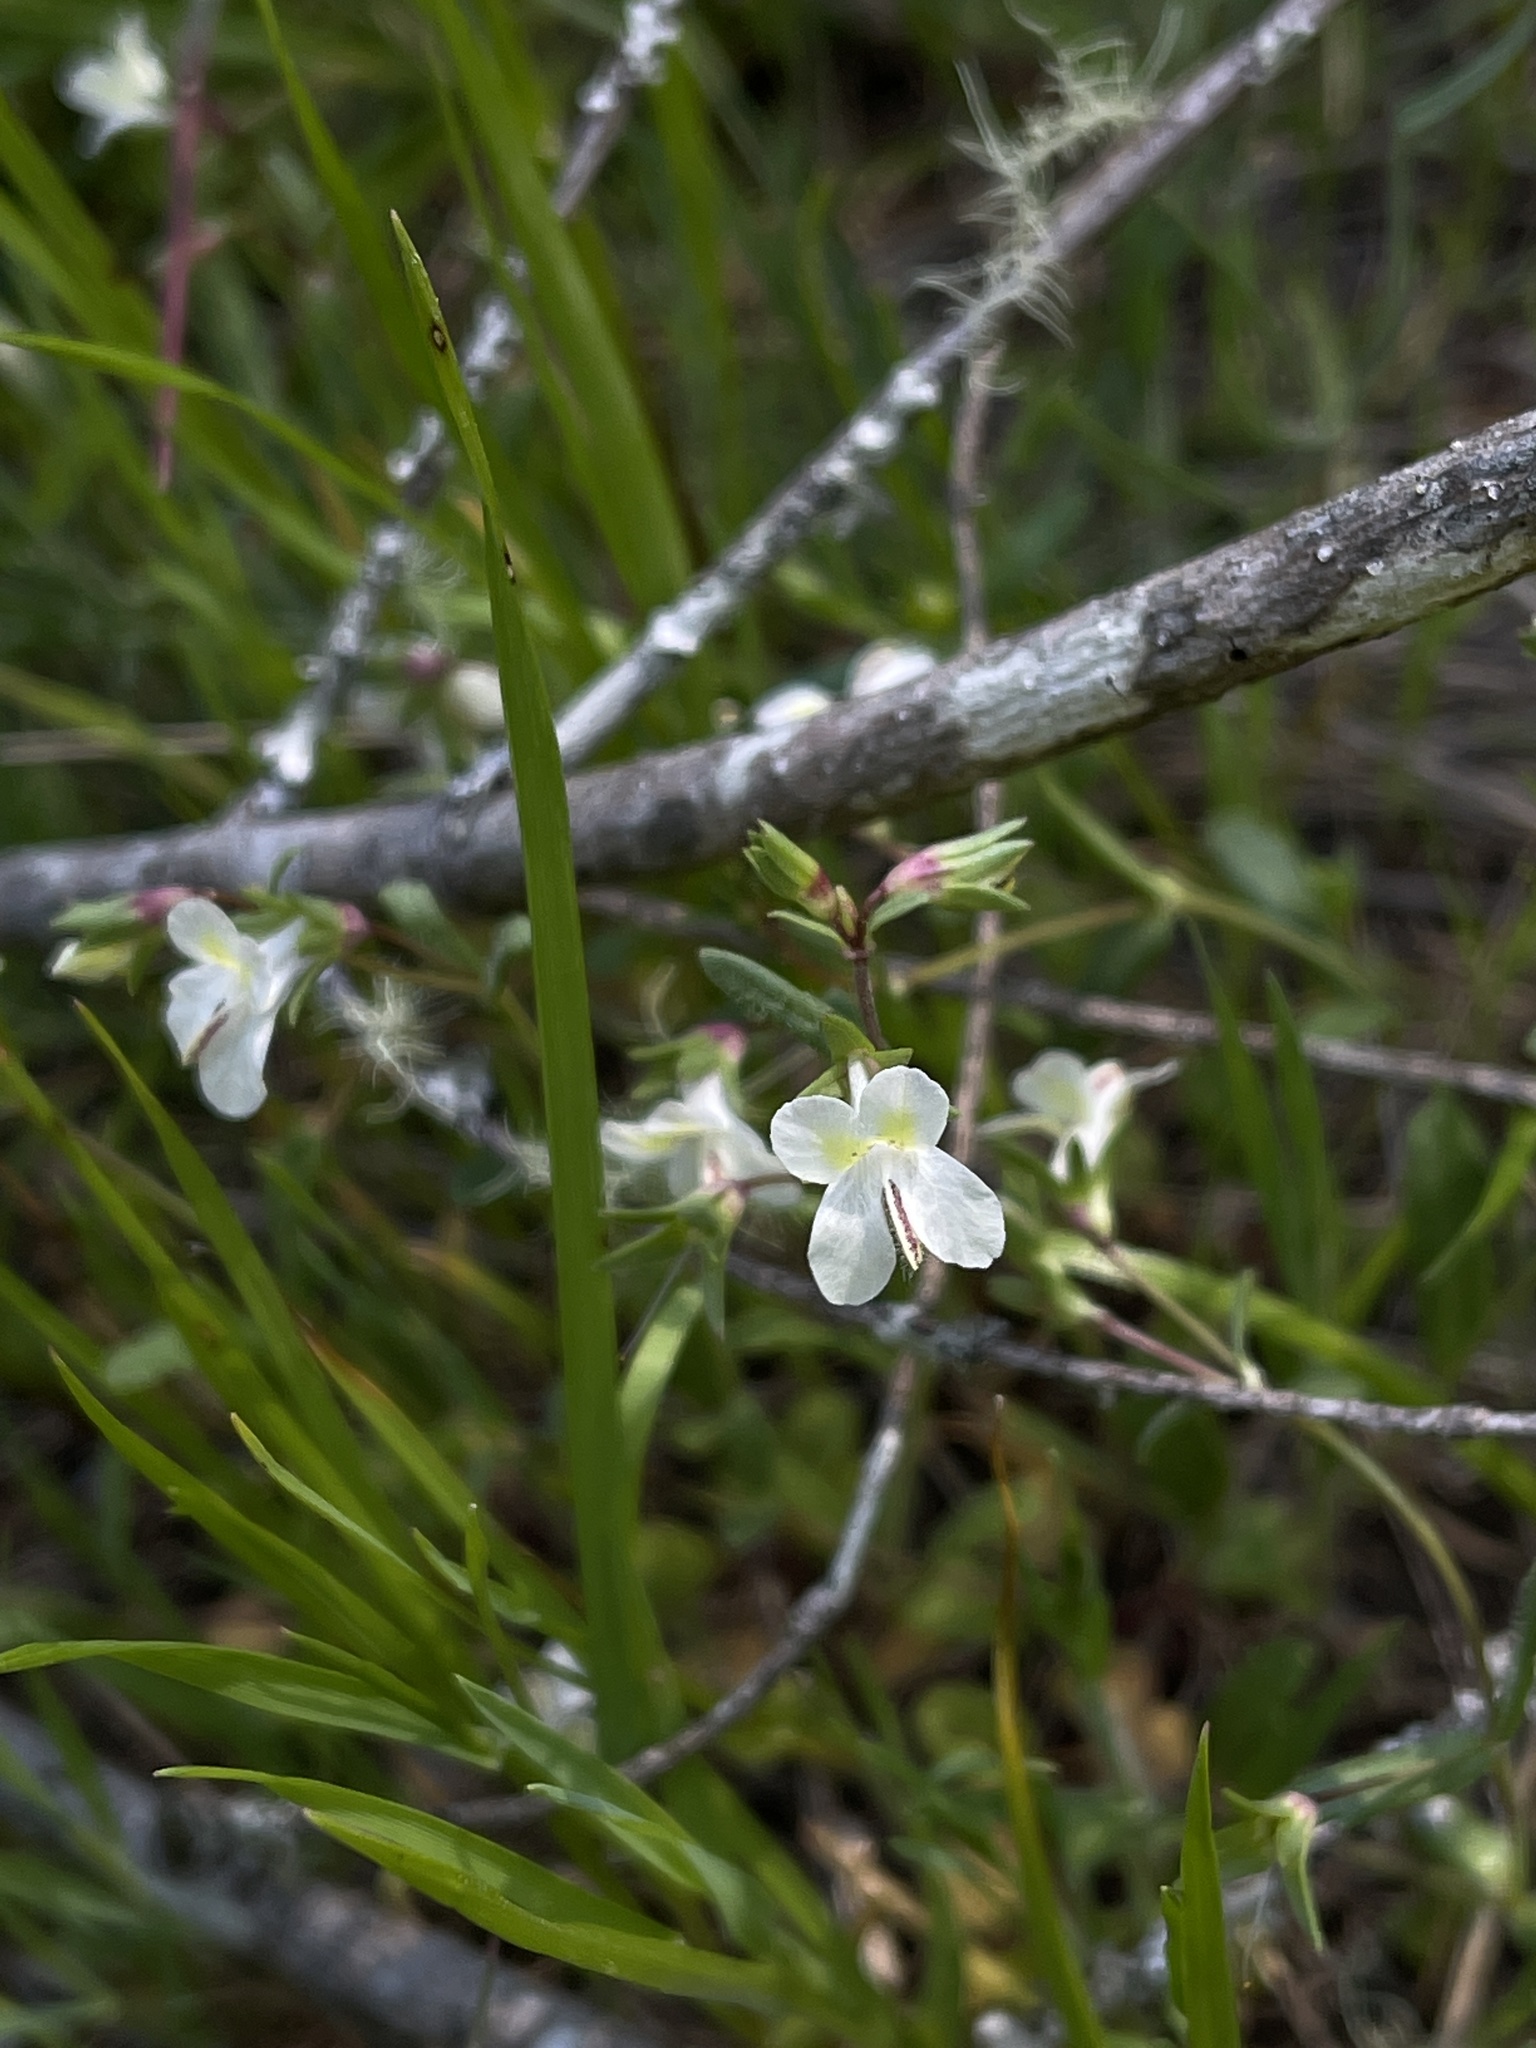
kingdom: Plantae
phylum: Tracheophyta
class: Magnoliopsida
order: Lamiales
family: Plantaginaceae
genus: Collinsia
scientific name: Collinsia sparsiflora
